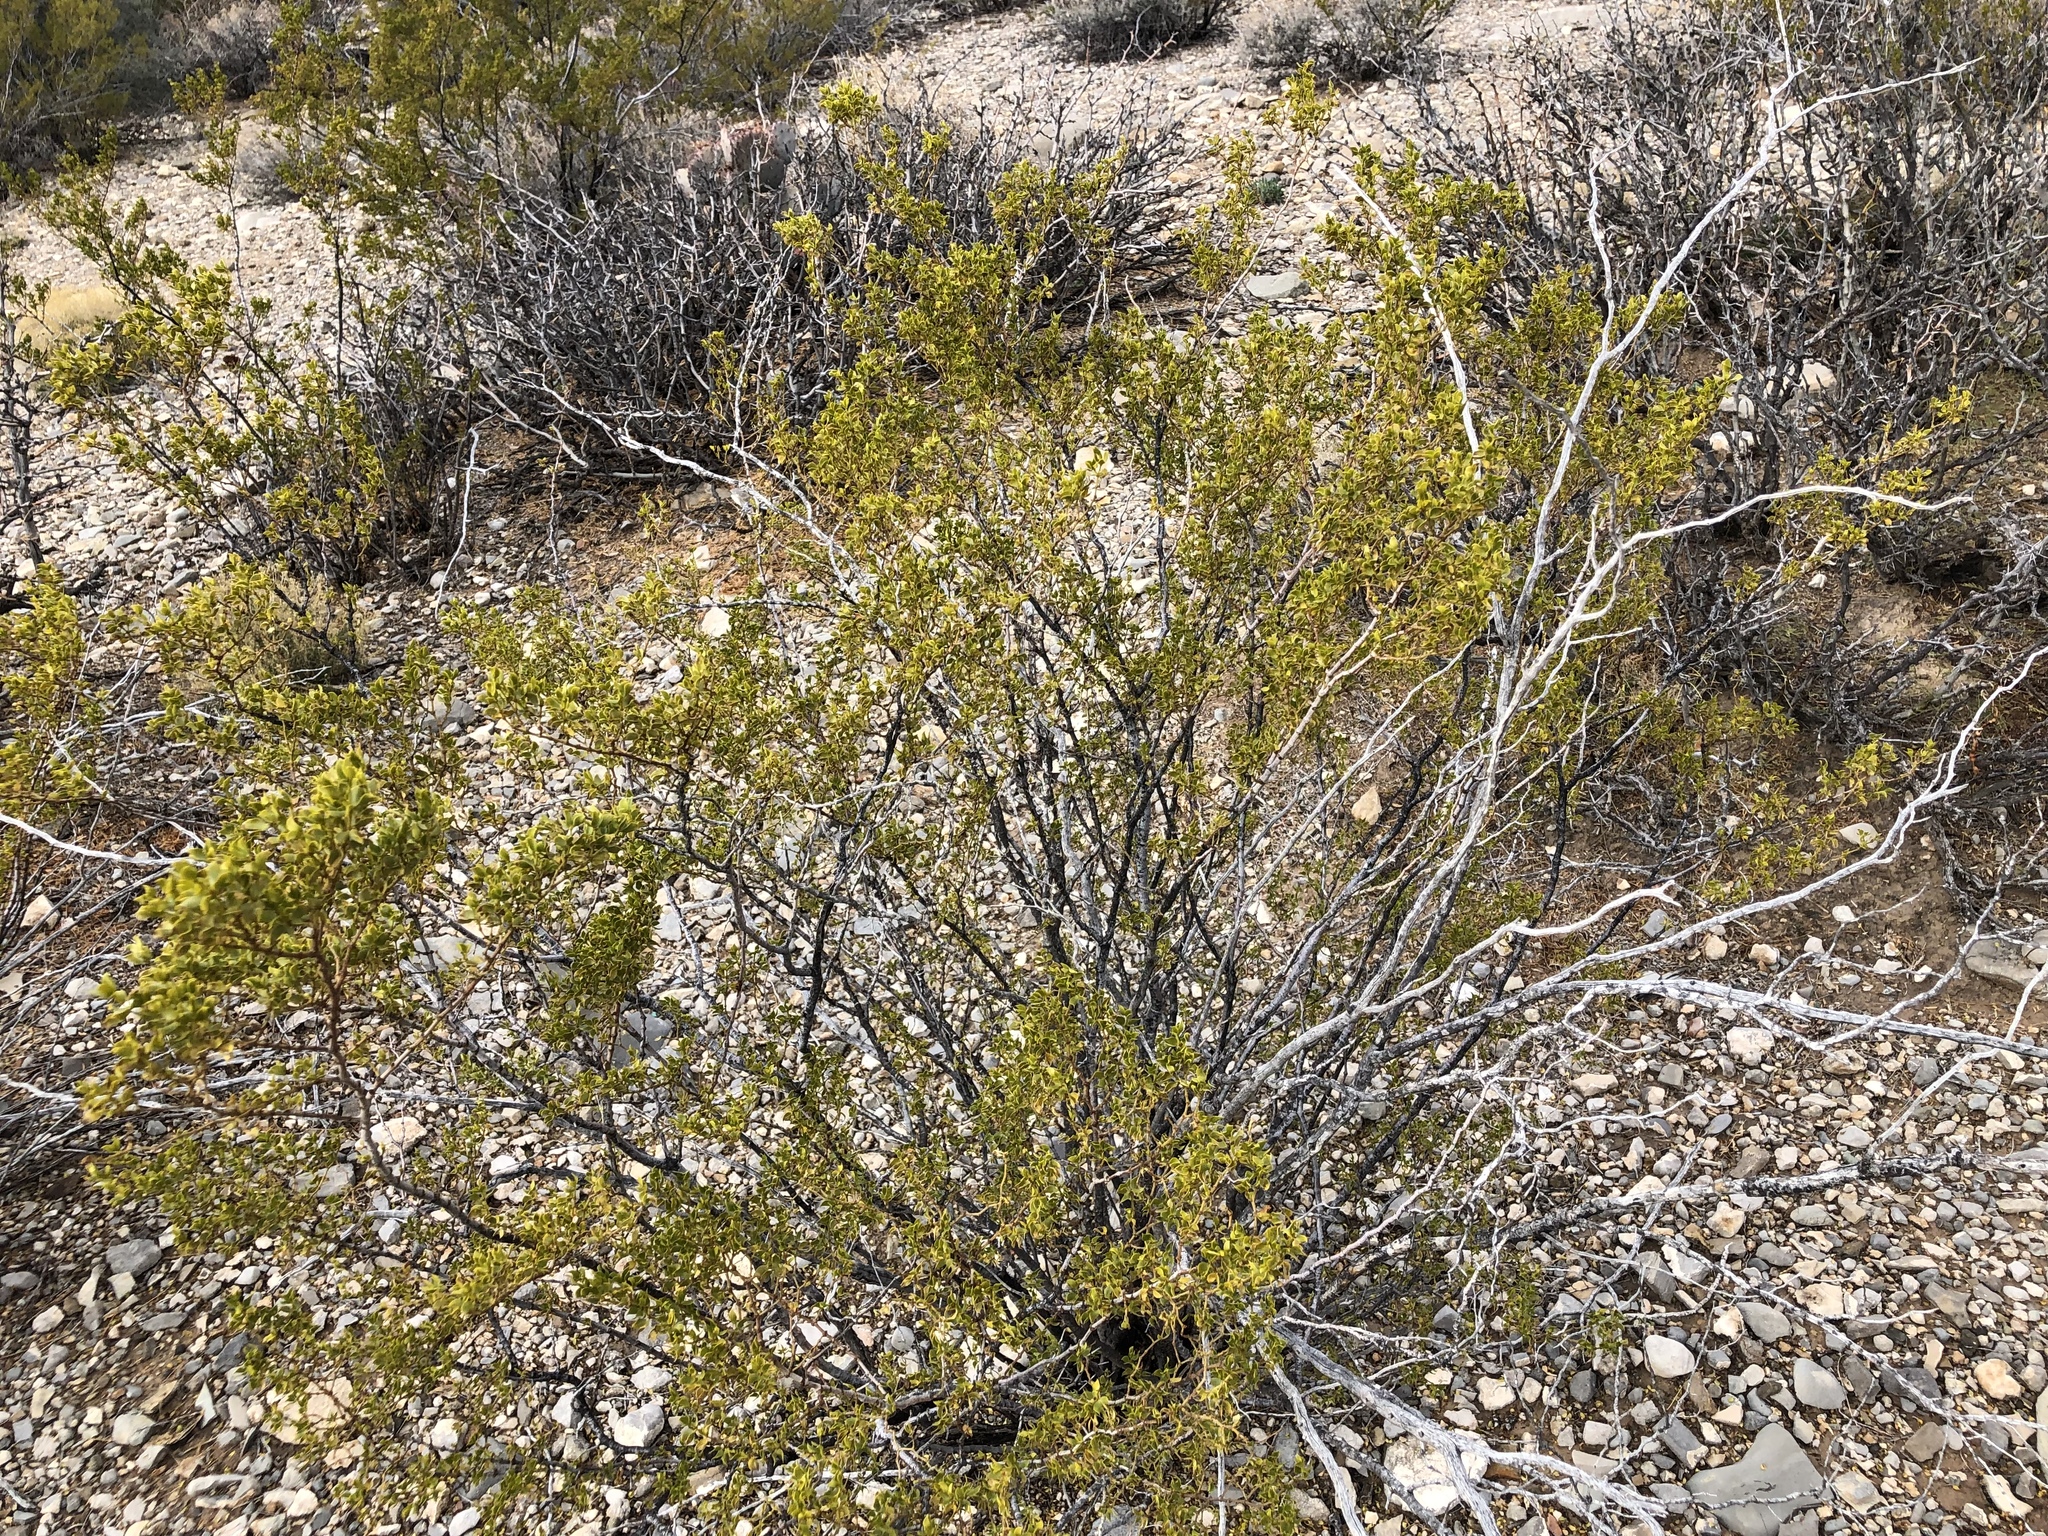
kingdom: Plantae
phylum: Tracheophyta
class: Magnoliopsida
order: Zygophyllales
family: Zygophyllaceae
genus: Larrea
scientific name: Larrea tridentata
